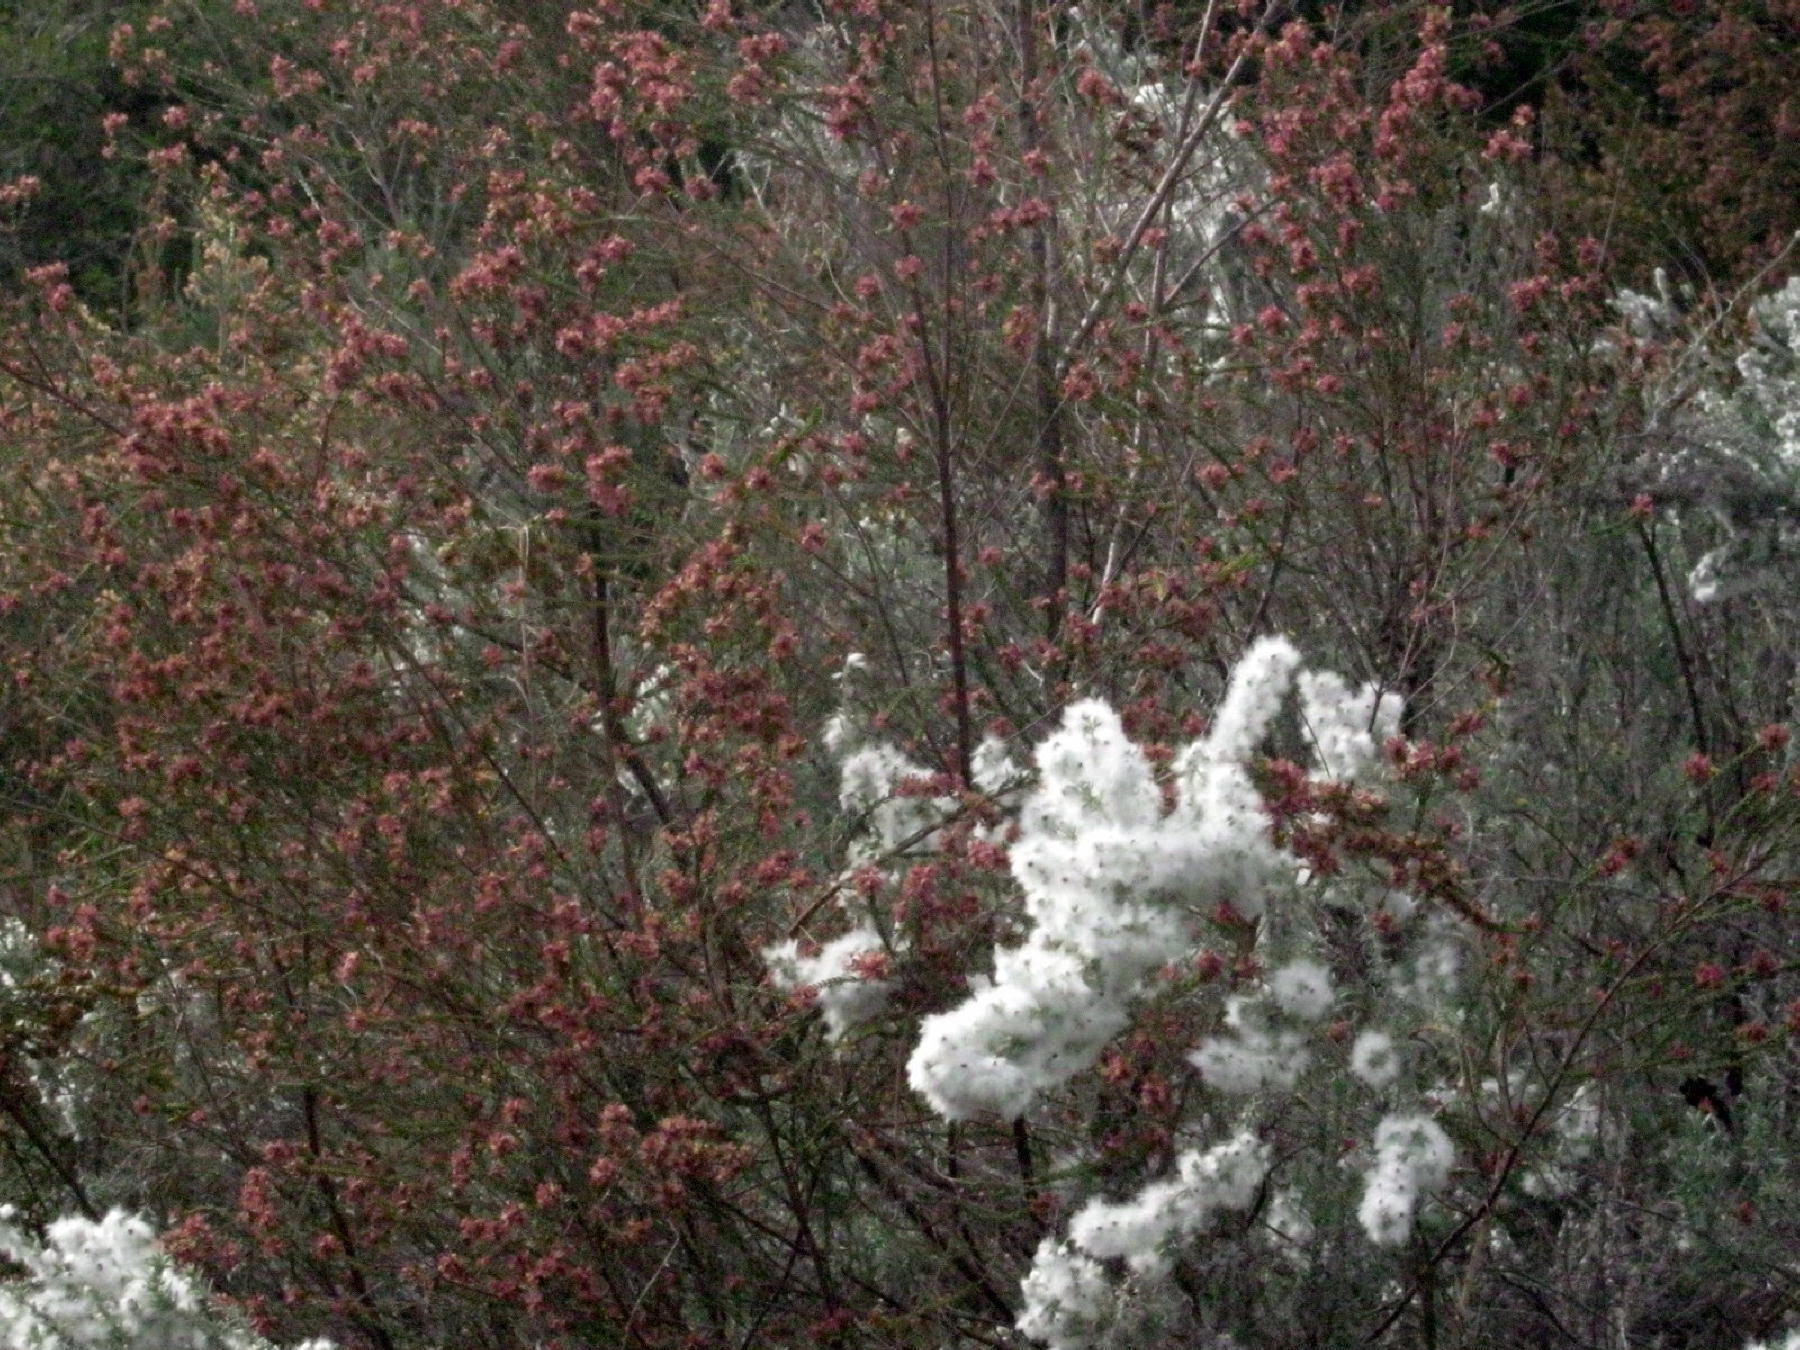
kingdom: Plantae
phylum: Tracheophyta
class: Magnoliopsida
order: Asterales
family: Asteraceae
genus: Eriocephalus
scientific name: Eriocephalus racemosus
